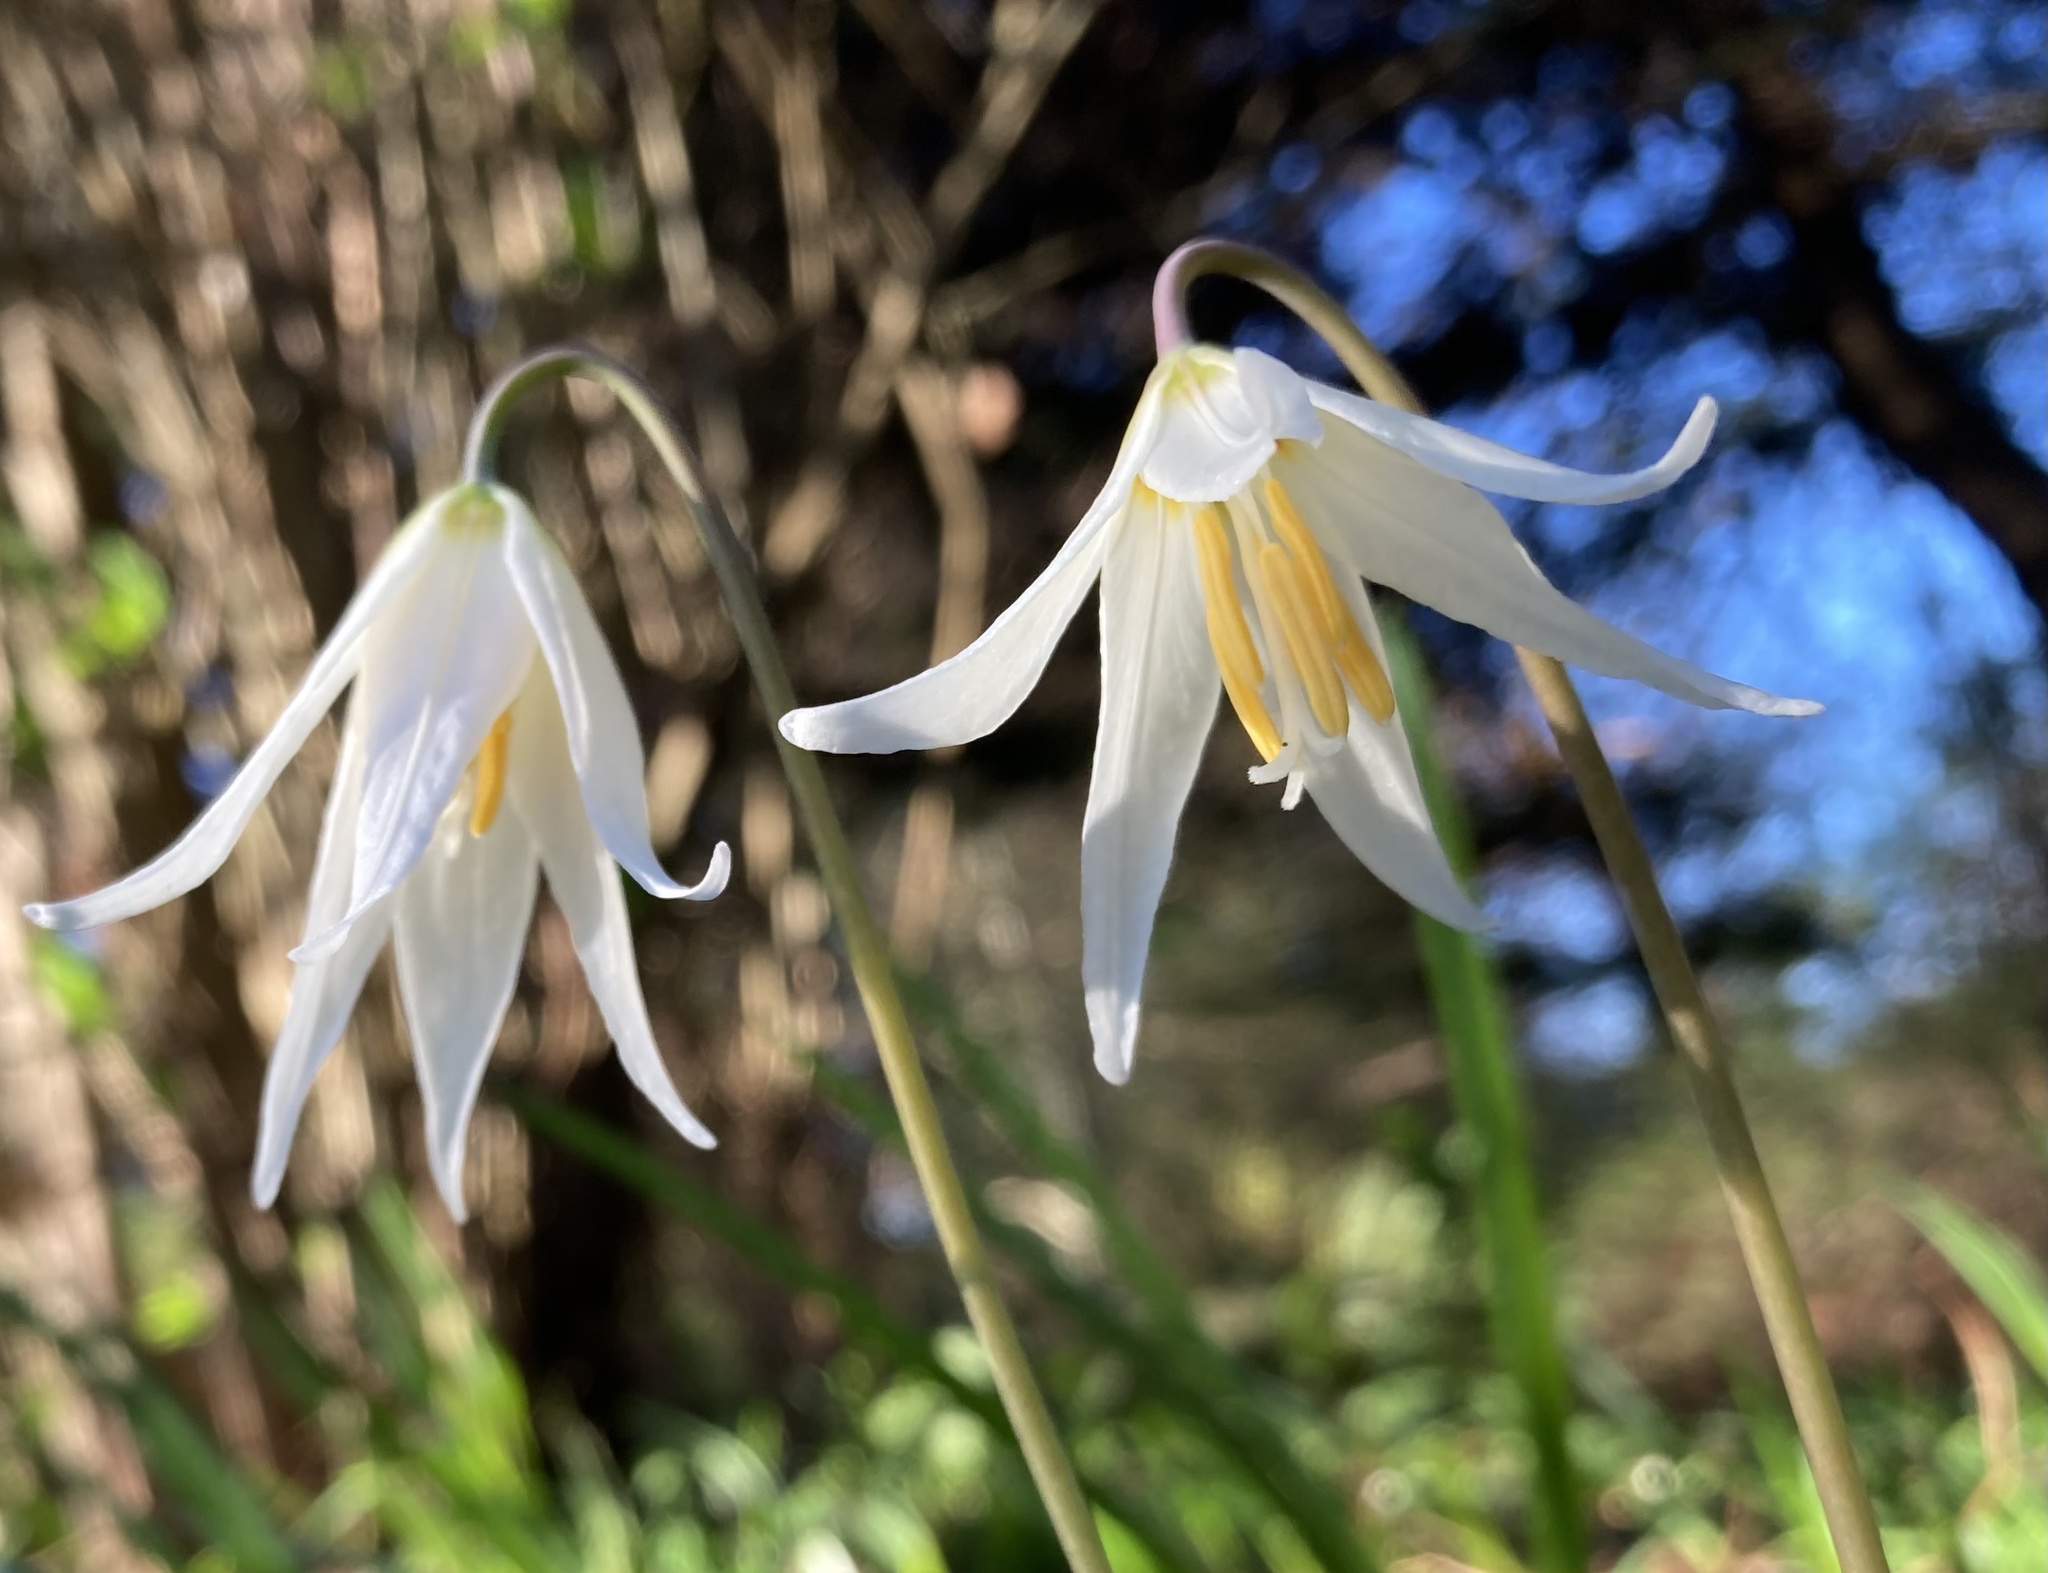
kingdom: Plantae
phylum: Tracheophyta
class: Liliopsida
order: Liliales
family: Liliaceae
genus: Erythronium
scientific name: Erythronium oregonum
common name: Giant adder's-tongue
